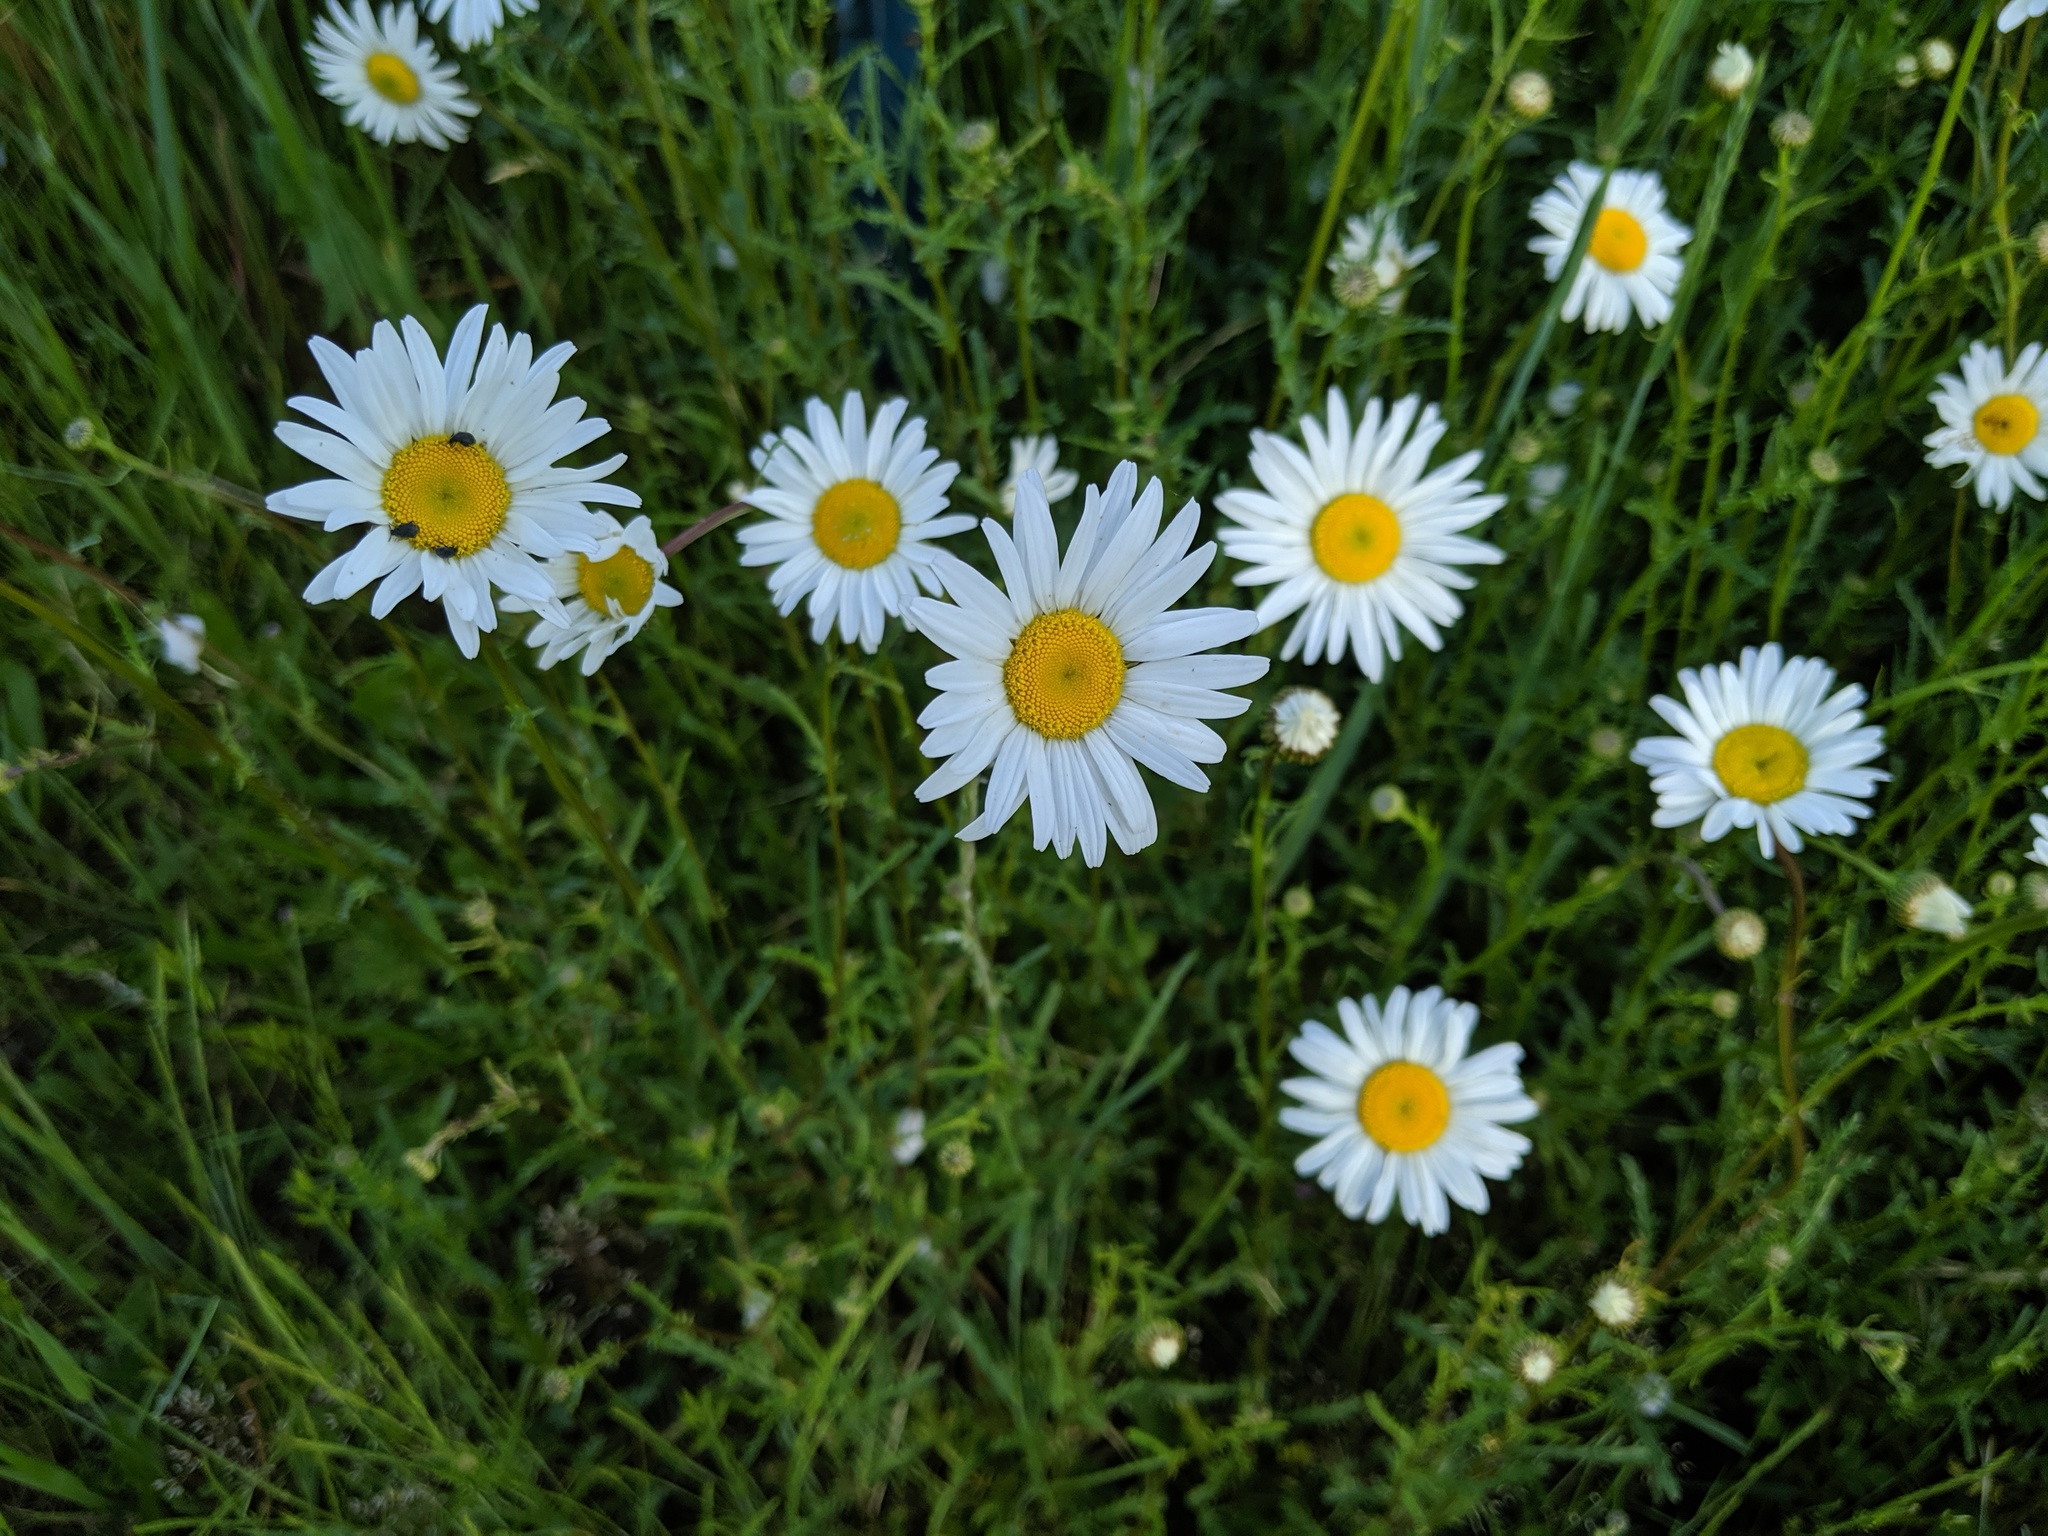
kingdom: Plantae
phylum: Tracheophyta
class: Magnoliopsida
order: Asterales
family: Asteraceae
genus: Leucanthemum
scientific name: Leucanthemum vulgare
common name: Oxeye daisy
